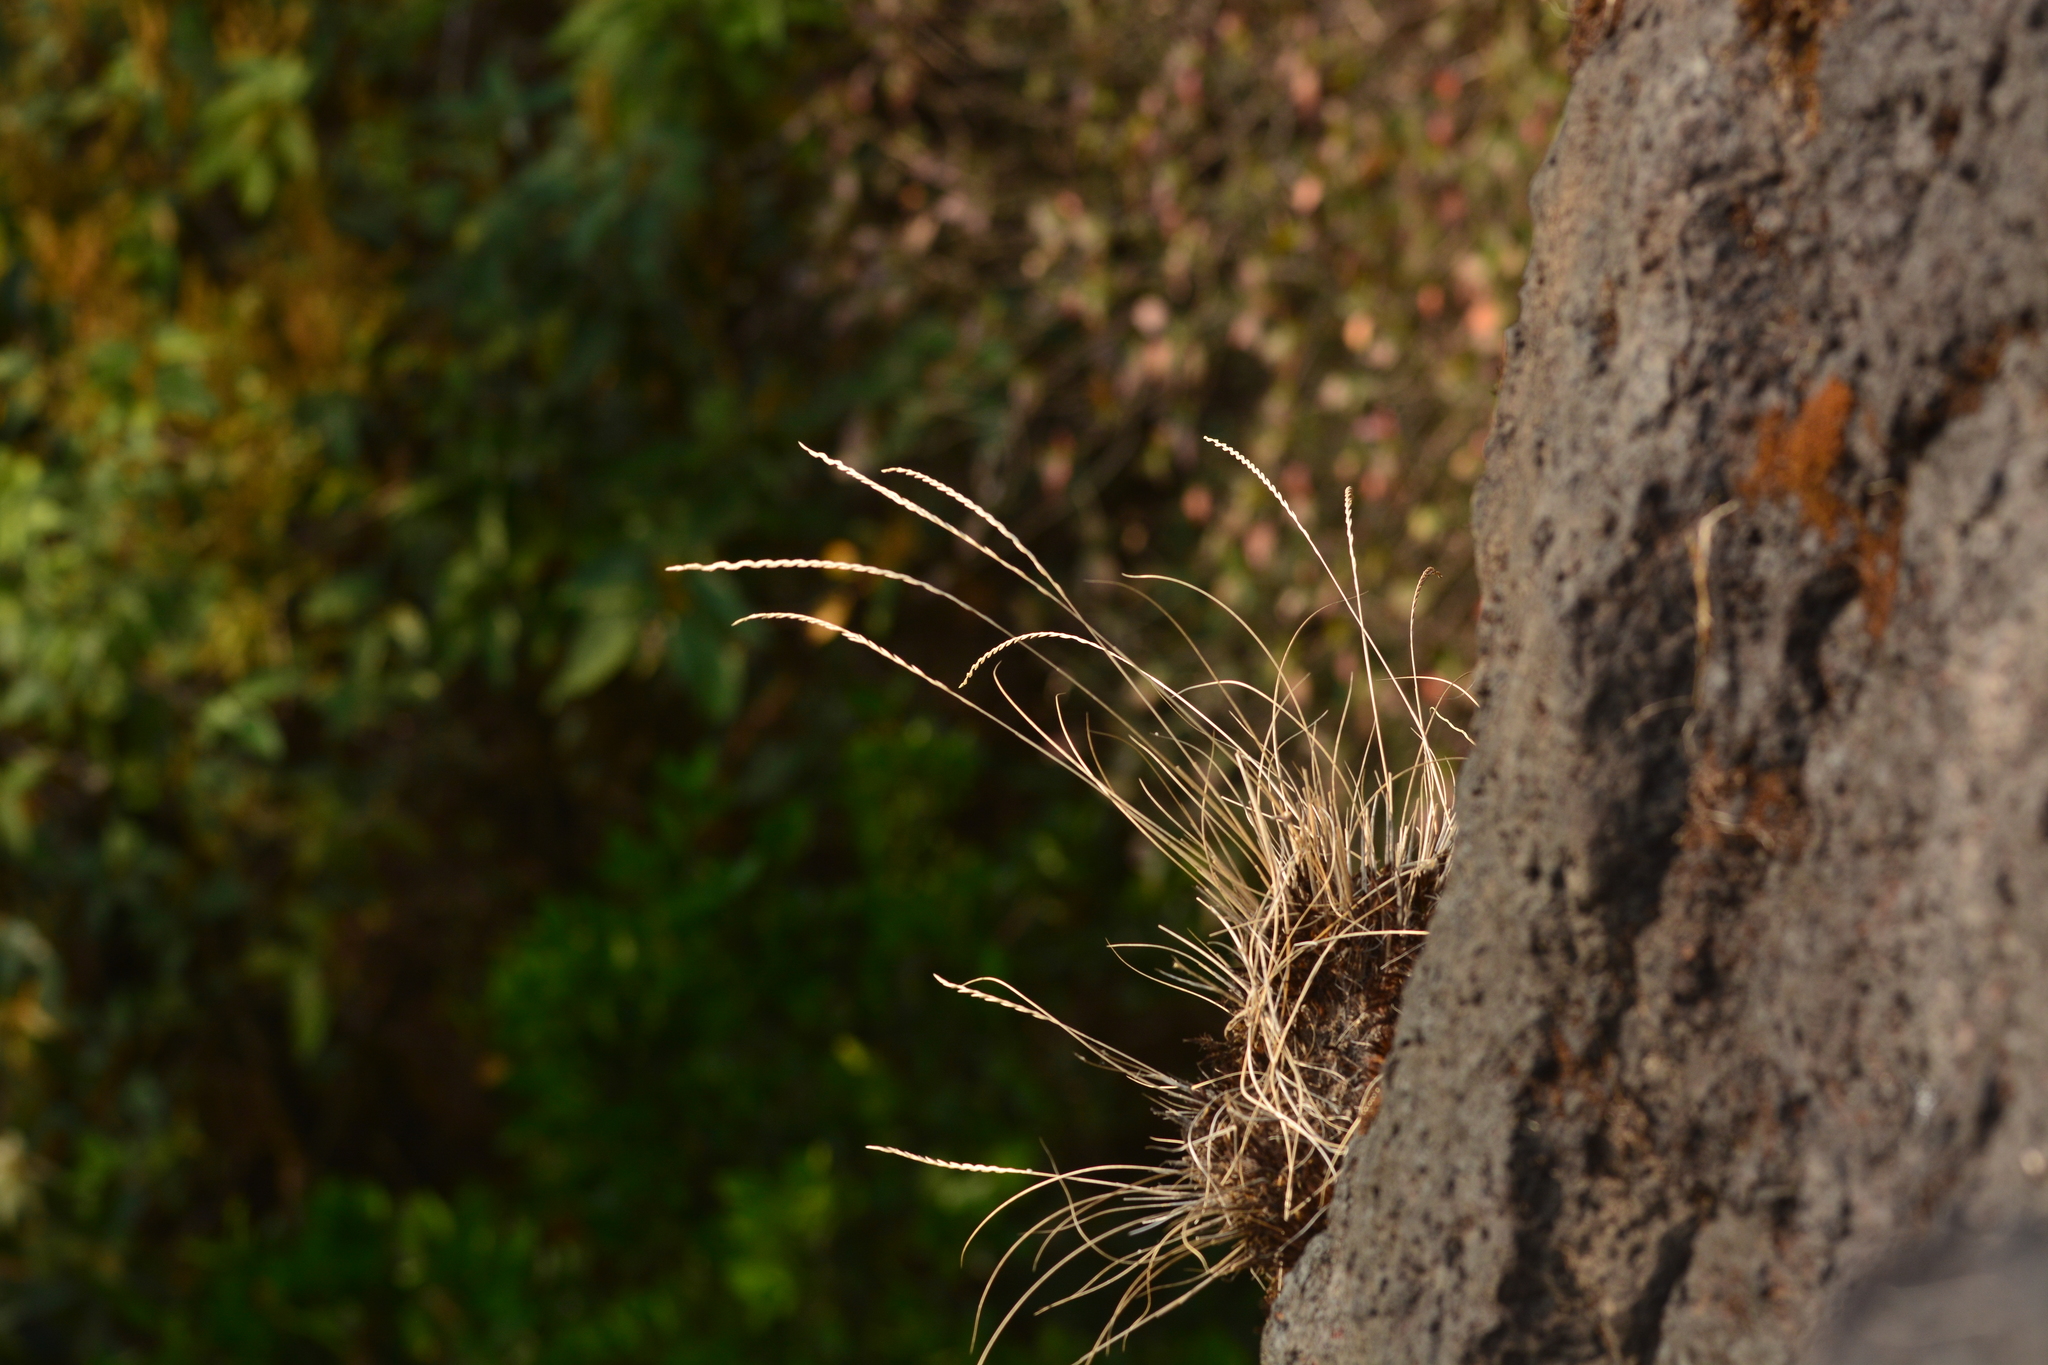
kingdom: Plantae
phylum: Tracheophyta
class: Liliopsida
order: Poales
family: Poaceae
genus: Tripogon
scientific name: Tripogon lisboae
